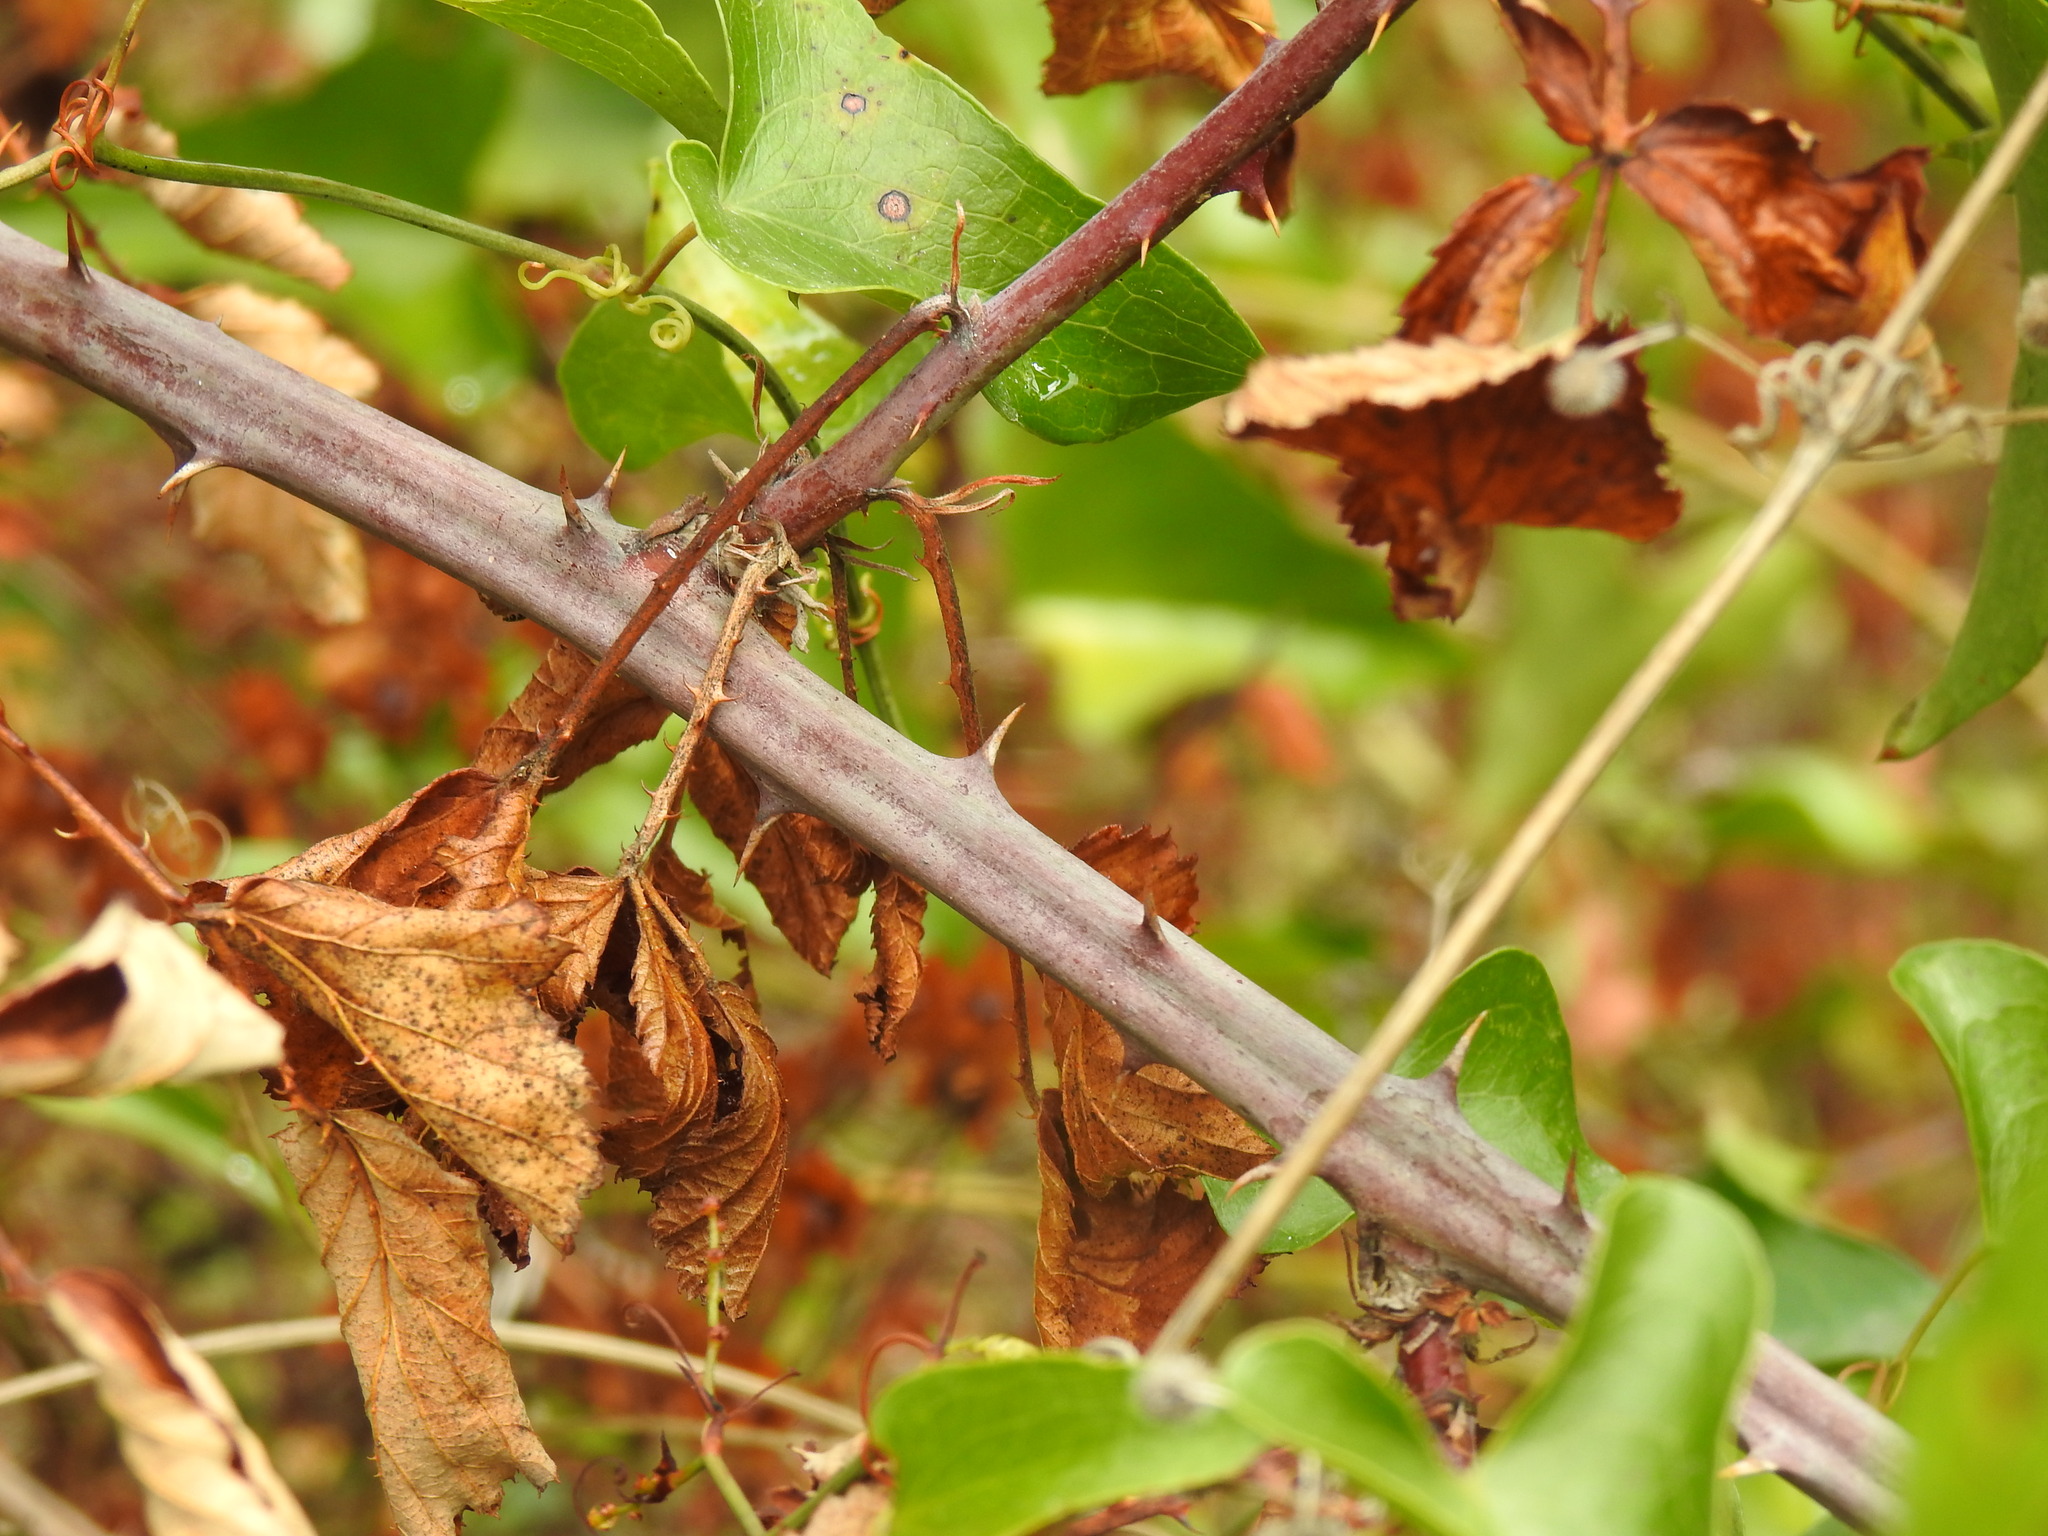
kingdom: Plantae
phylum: Tracheophyta
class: Magnoliopsida
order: Rosales
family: Rosaceae
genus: Rubus
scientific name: Rubus ulmifolius
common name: Elmleaf blackberry
